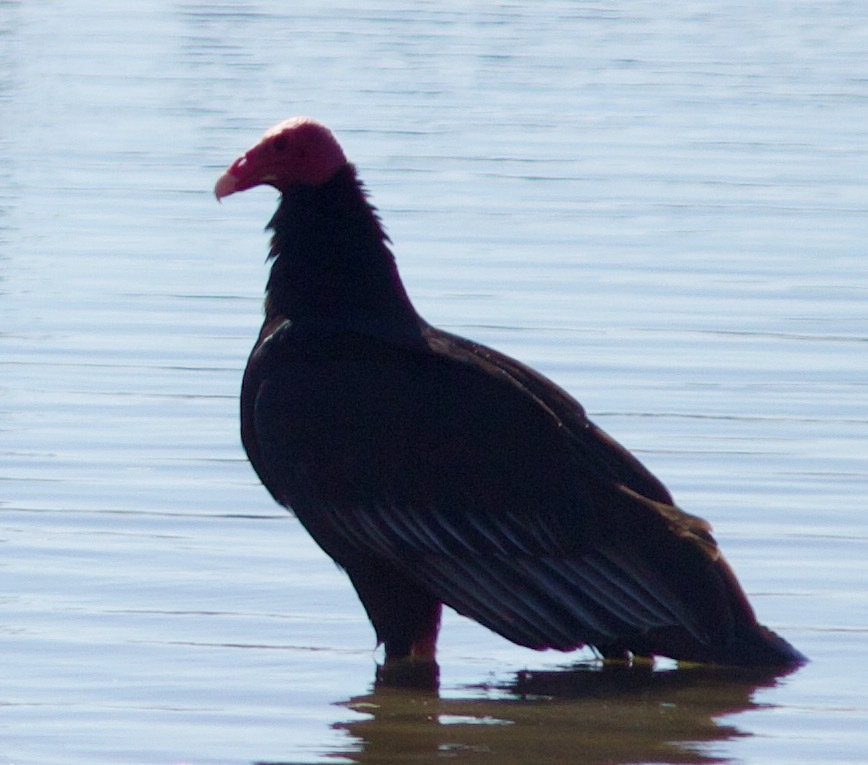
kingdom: Animalia
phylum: Chordata
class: Aves
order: Accipitriformes
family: Cathartidae
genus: Cathartes
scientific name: Cathartes aura
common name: Turkey vulture
